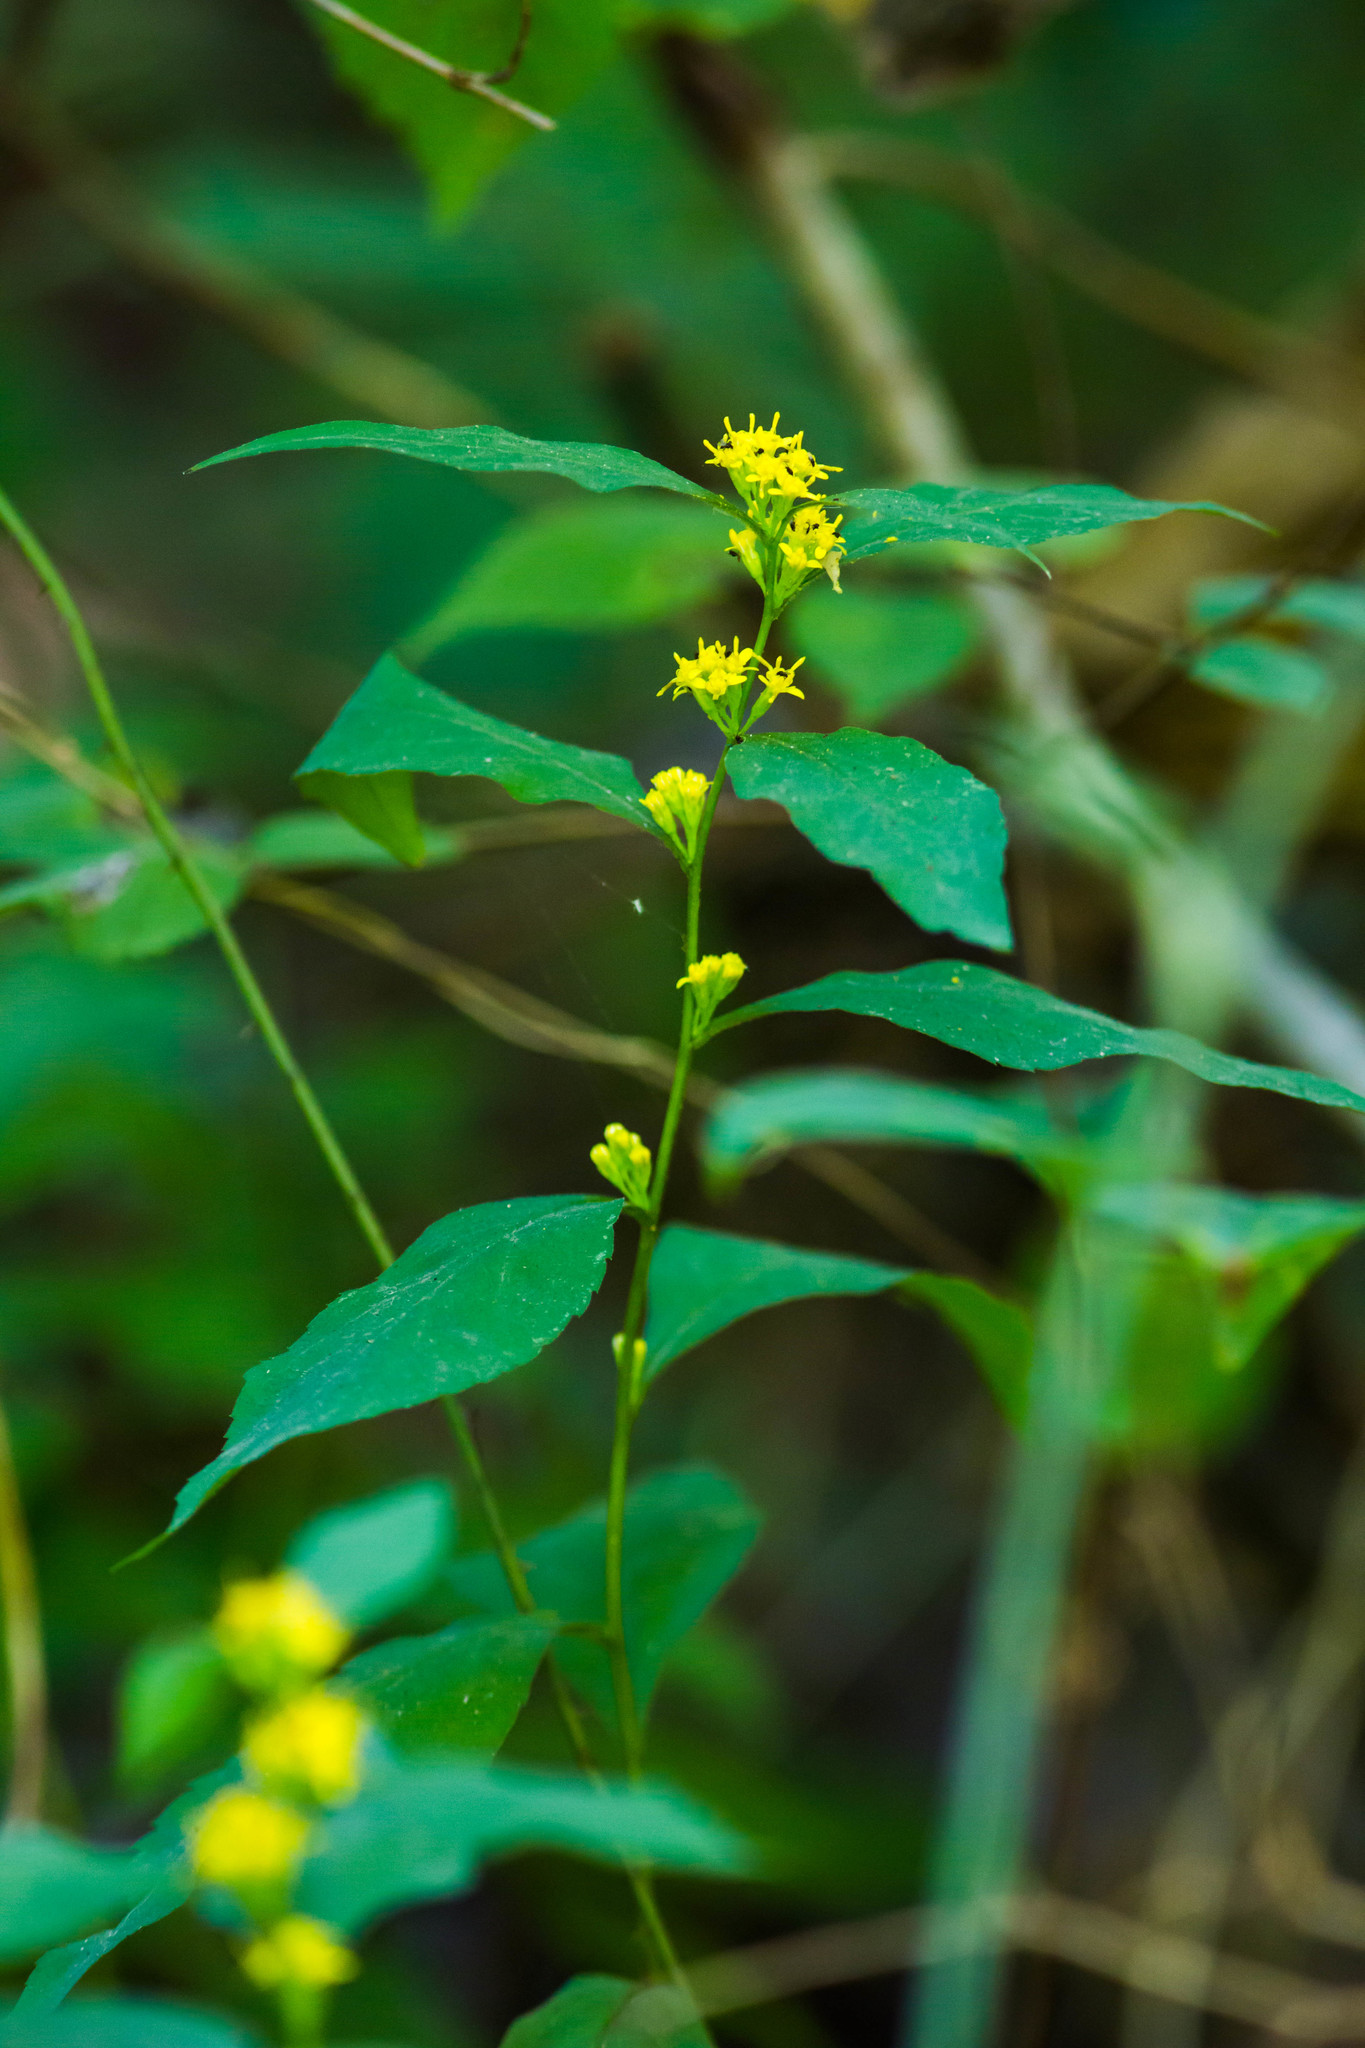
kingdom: Plantae
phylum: Tracheophyta
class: Magnoliopsida
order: Asterales
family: Asteraceae
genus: Solidago
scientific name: Solidago caesia
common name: Woodland goldenrod
